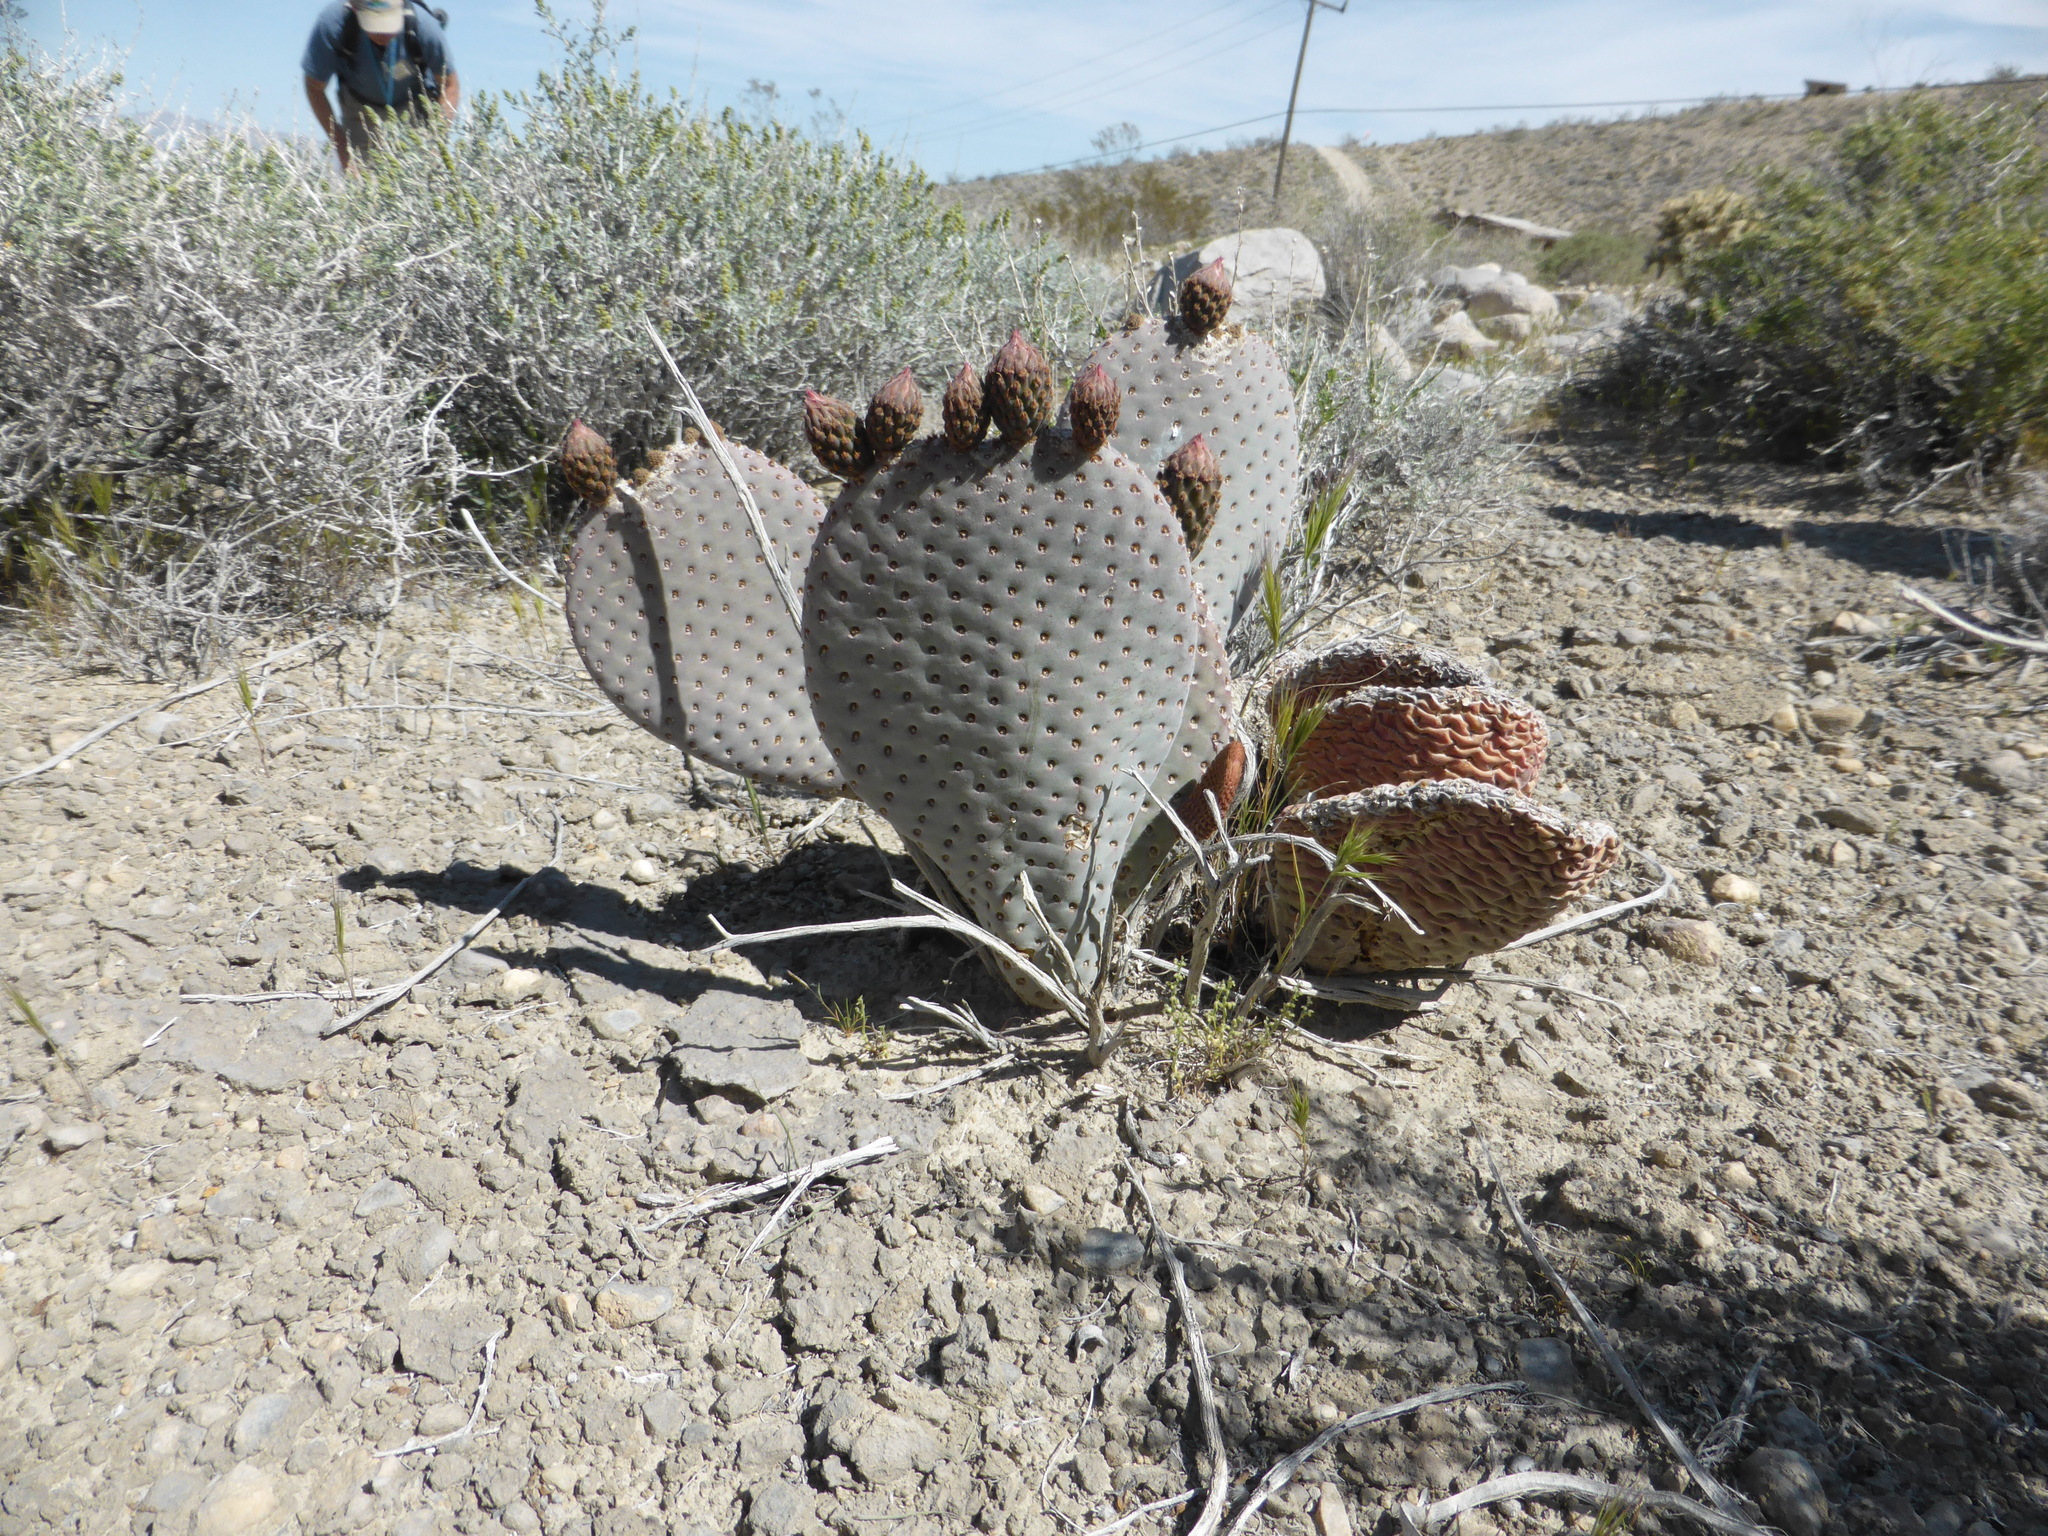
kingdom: Plantae
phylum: Tracheophyta
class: Magnoliopsida
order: Caryophyllales
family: Cactaceae
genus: Opuntia
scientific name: Opuntia basilaris
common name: Beavertail prickly-pear
